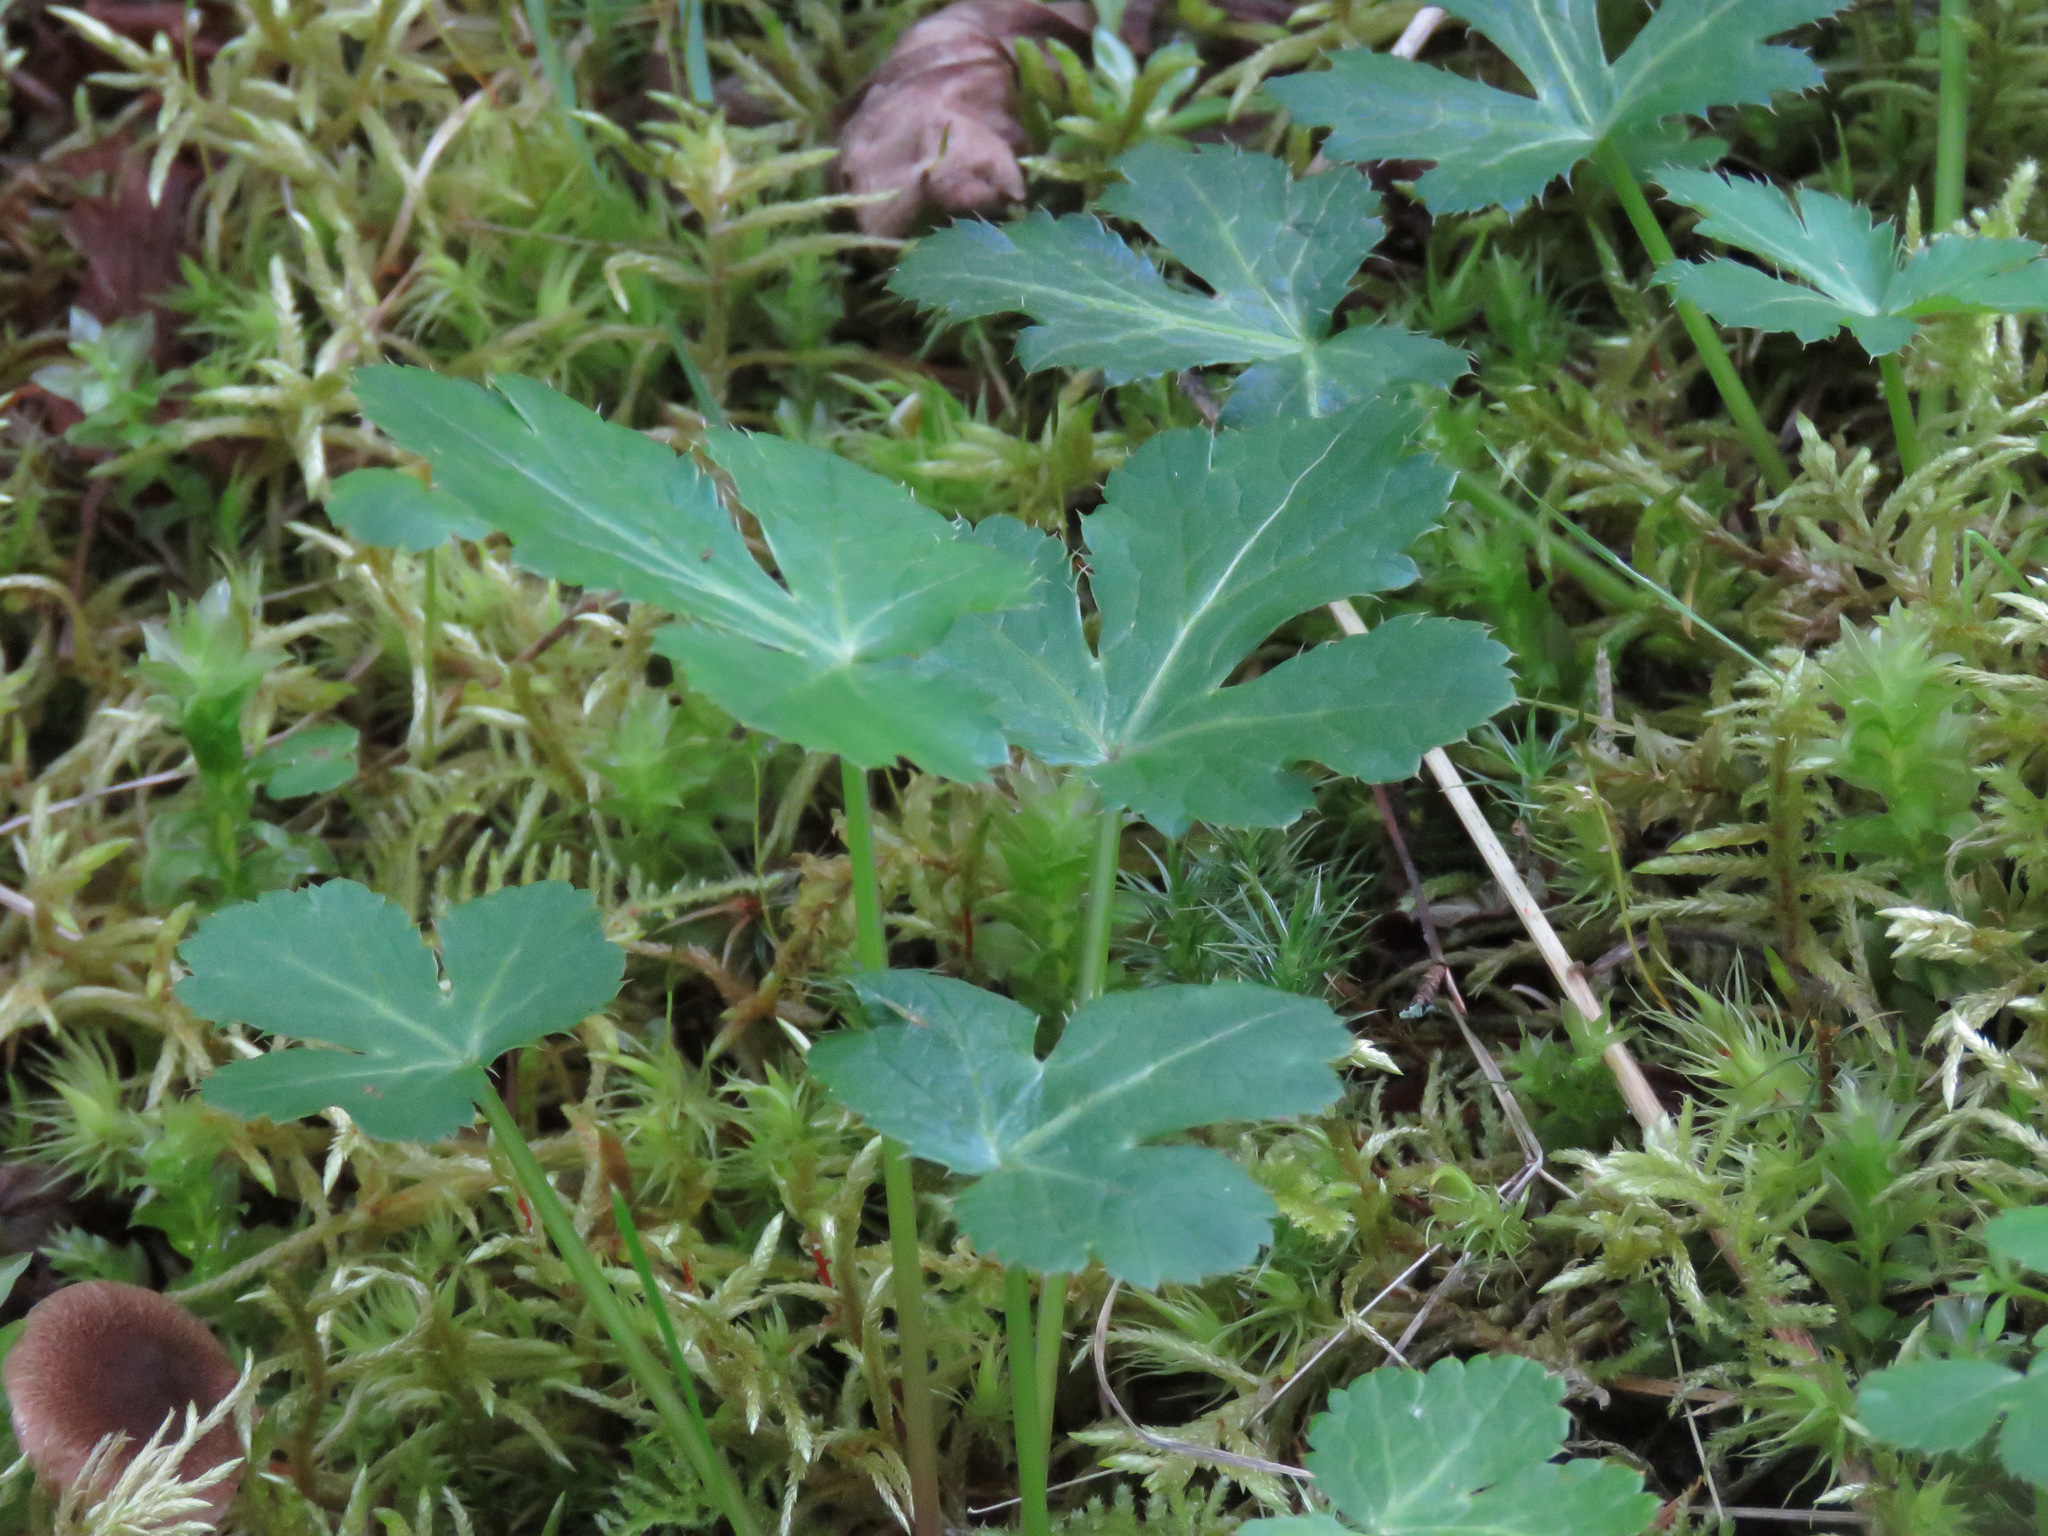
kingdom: Plantae
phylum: Tracheophyta
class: Magnoliopsida
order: Apiales
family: Apiaceae
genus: Sanicula
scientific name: Sanicula crassicaulis
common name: Western snakeroot
